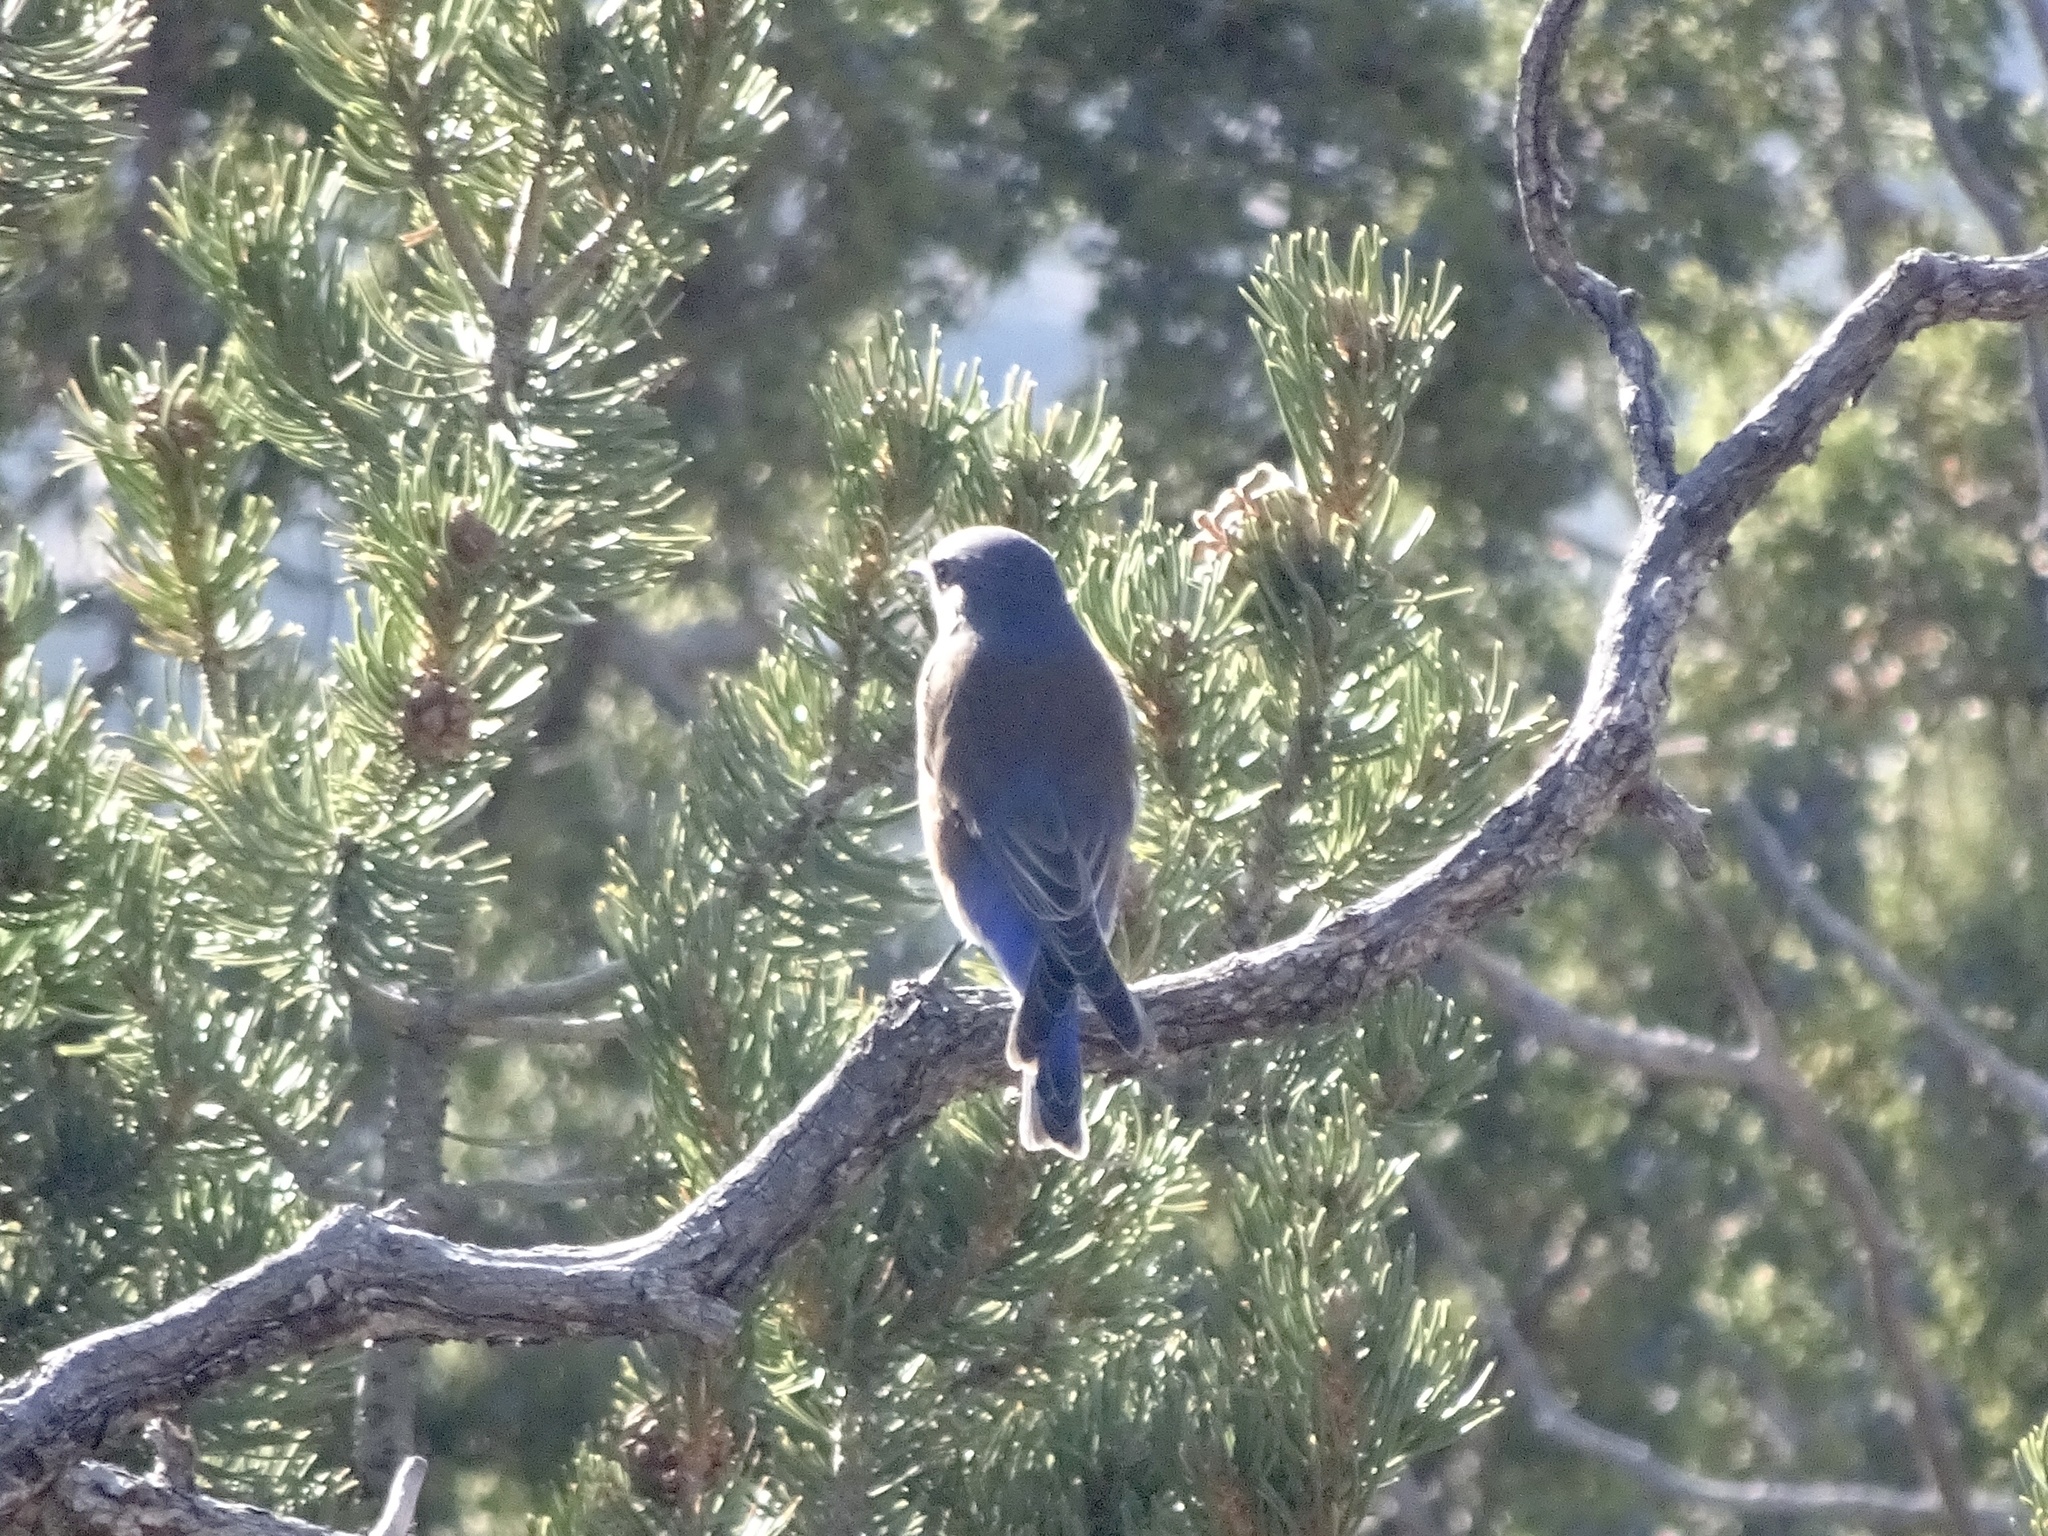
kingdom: Animalia
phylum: Chordata
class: Aves
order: Passeriformes
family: Turdidae
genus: Sialia
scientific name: Sialia mexicana
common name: Western bluebird
